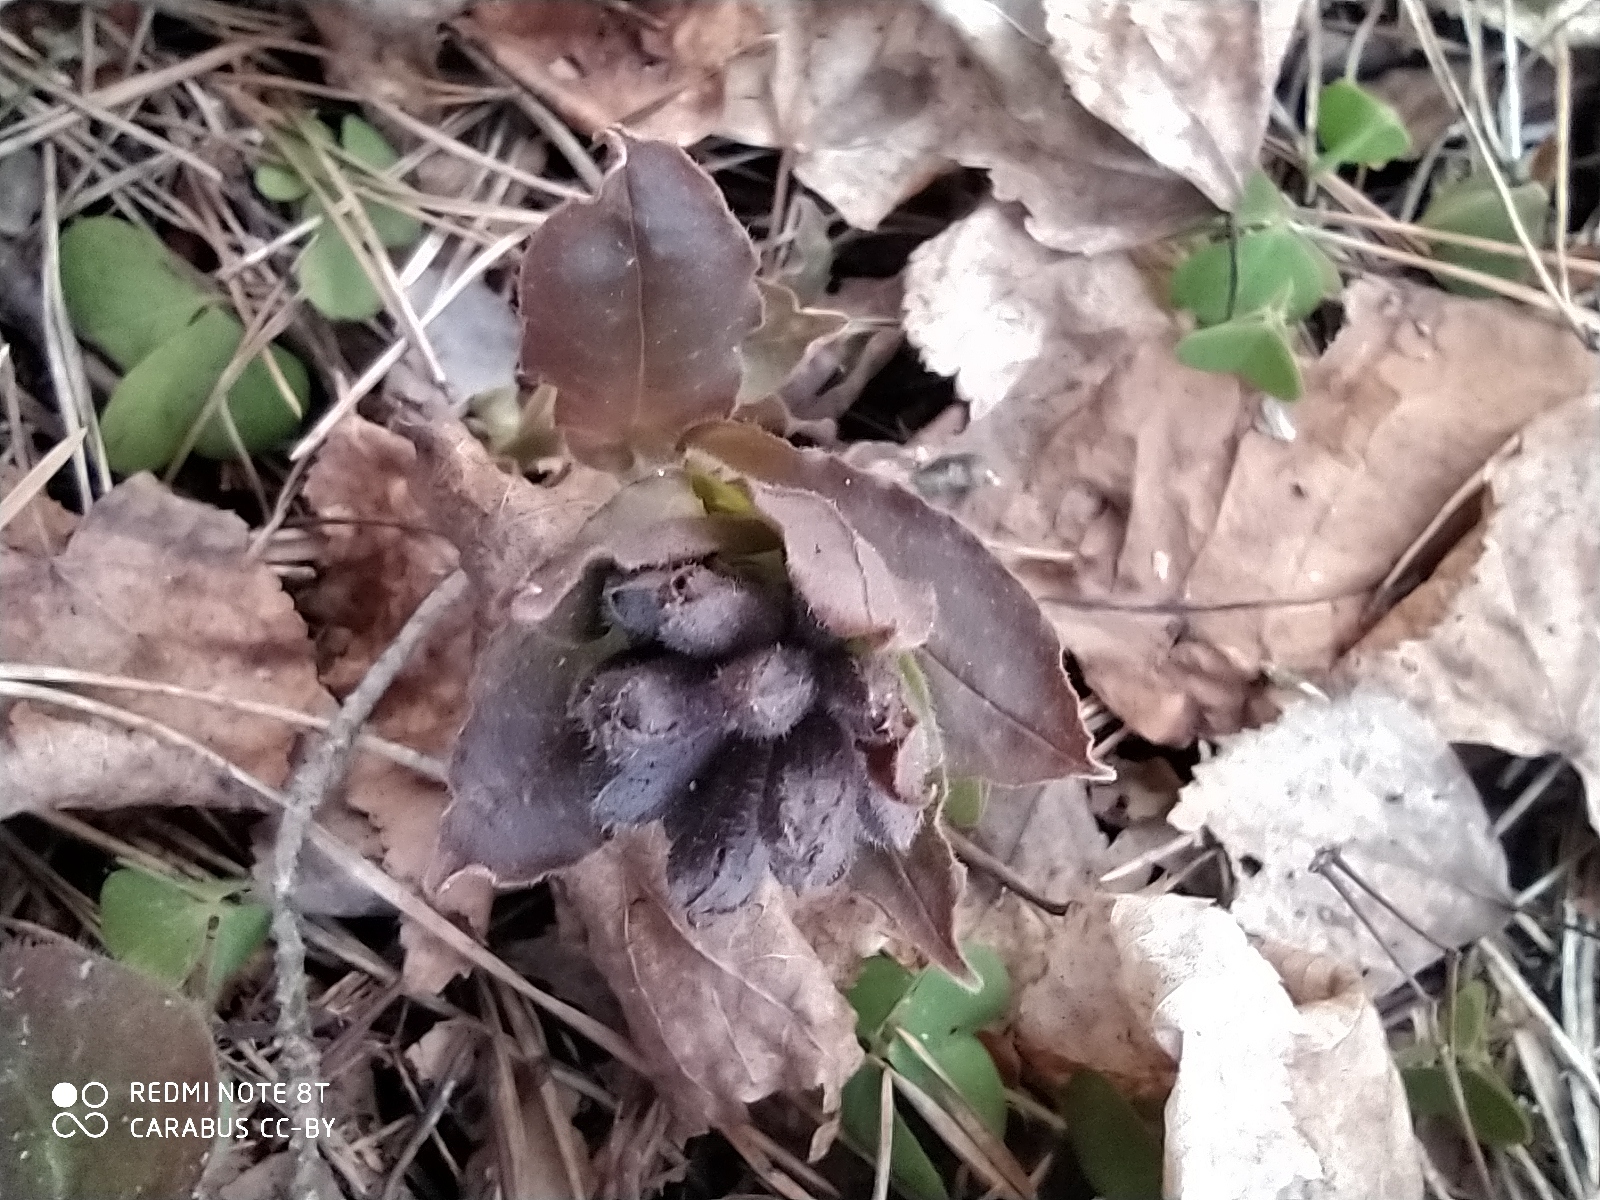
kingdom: Plantae
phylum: Tracheophyta
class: Magnoliopsida
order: Boraginales
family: Boraginaceae
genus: Pulmonaria
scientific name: Pulmonaria obscura
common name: Suffolk lungwort
